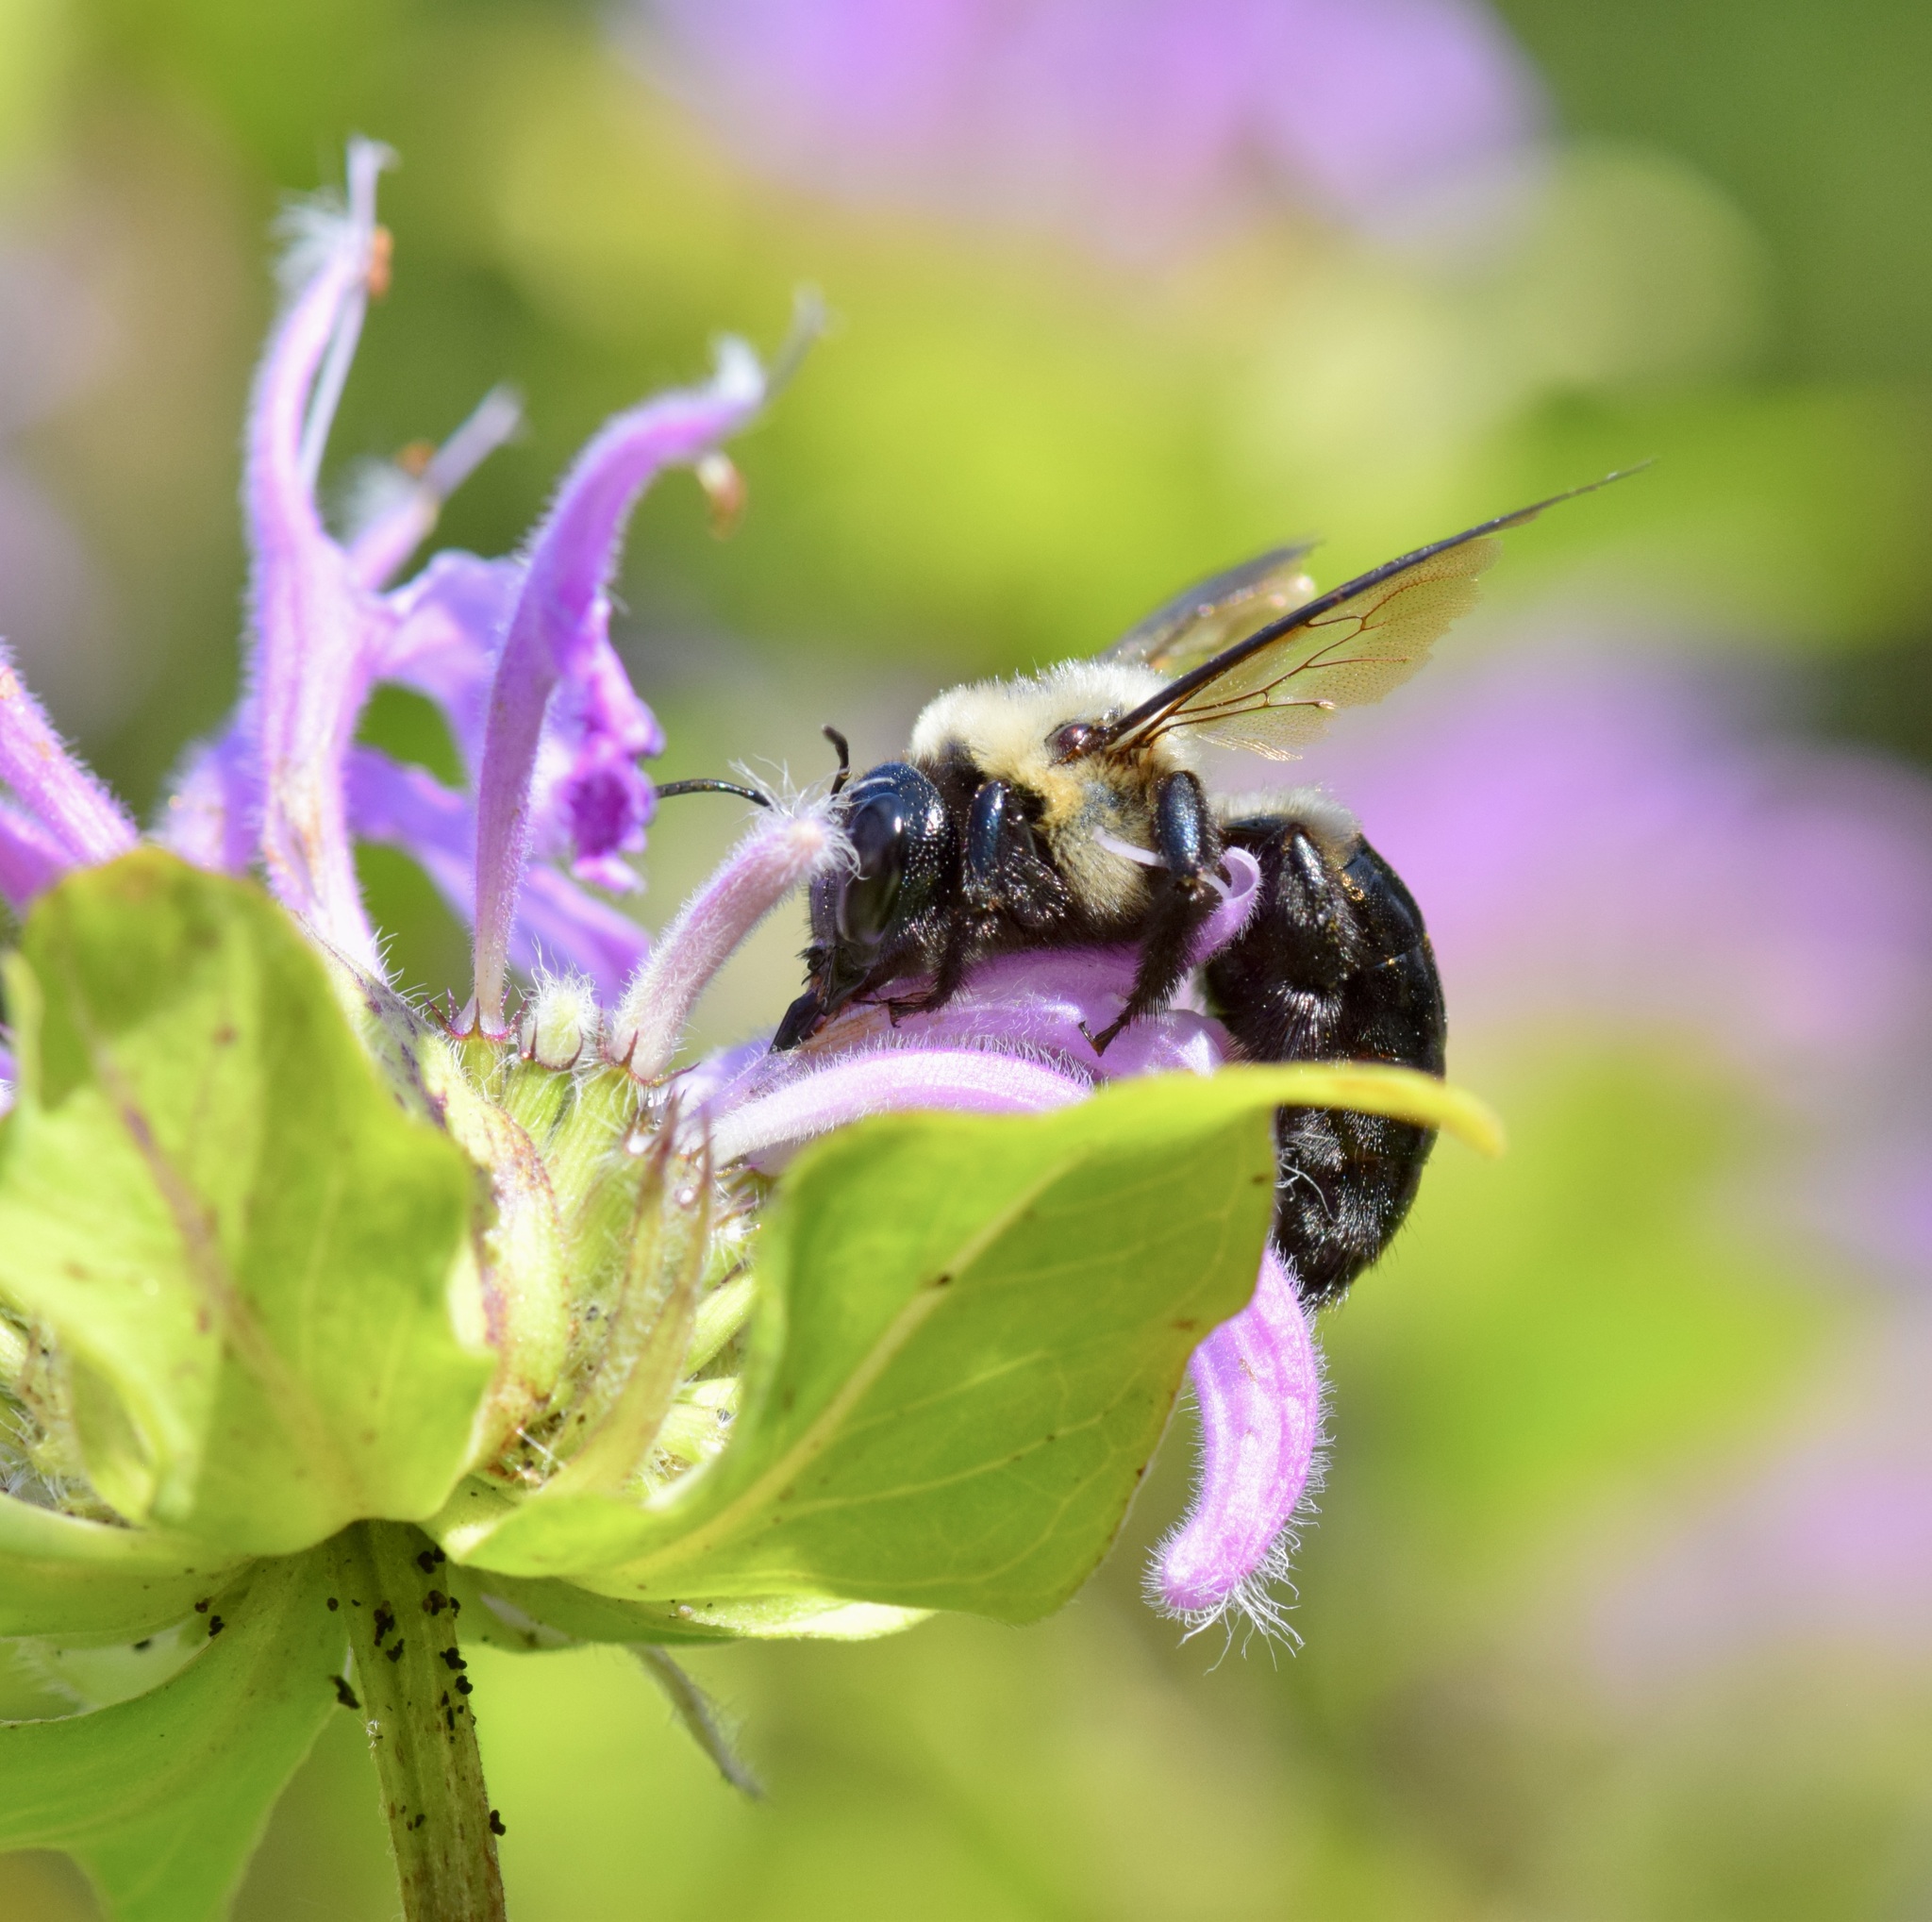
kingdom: Animalia
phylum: Arthropoda
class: Insecta
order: Hymenoptera
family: Apidae
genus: Xylocopa
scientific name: Xylocopa virginica
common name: Carpenter bee
